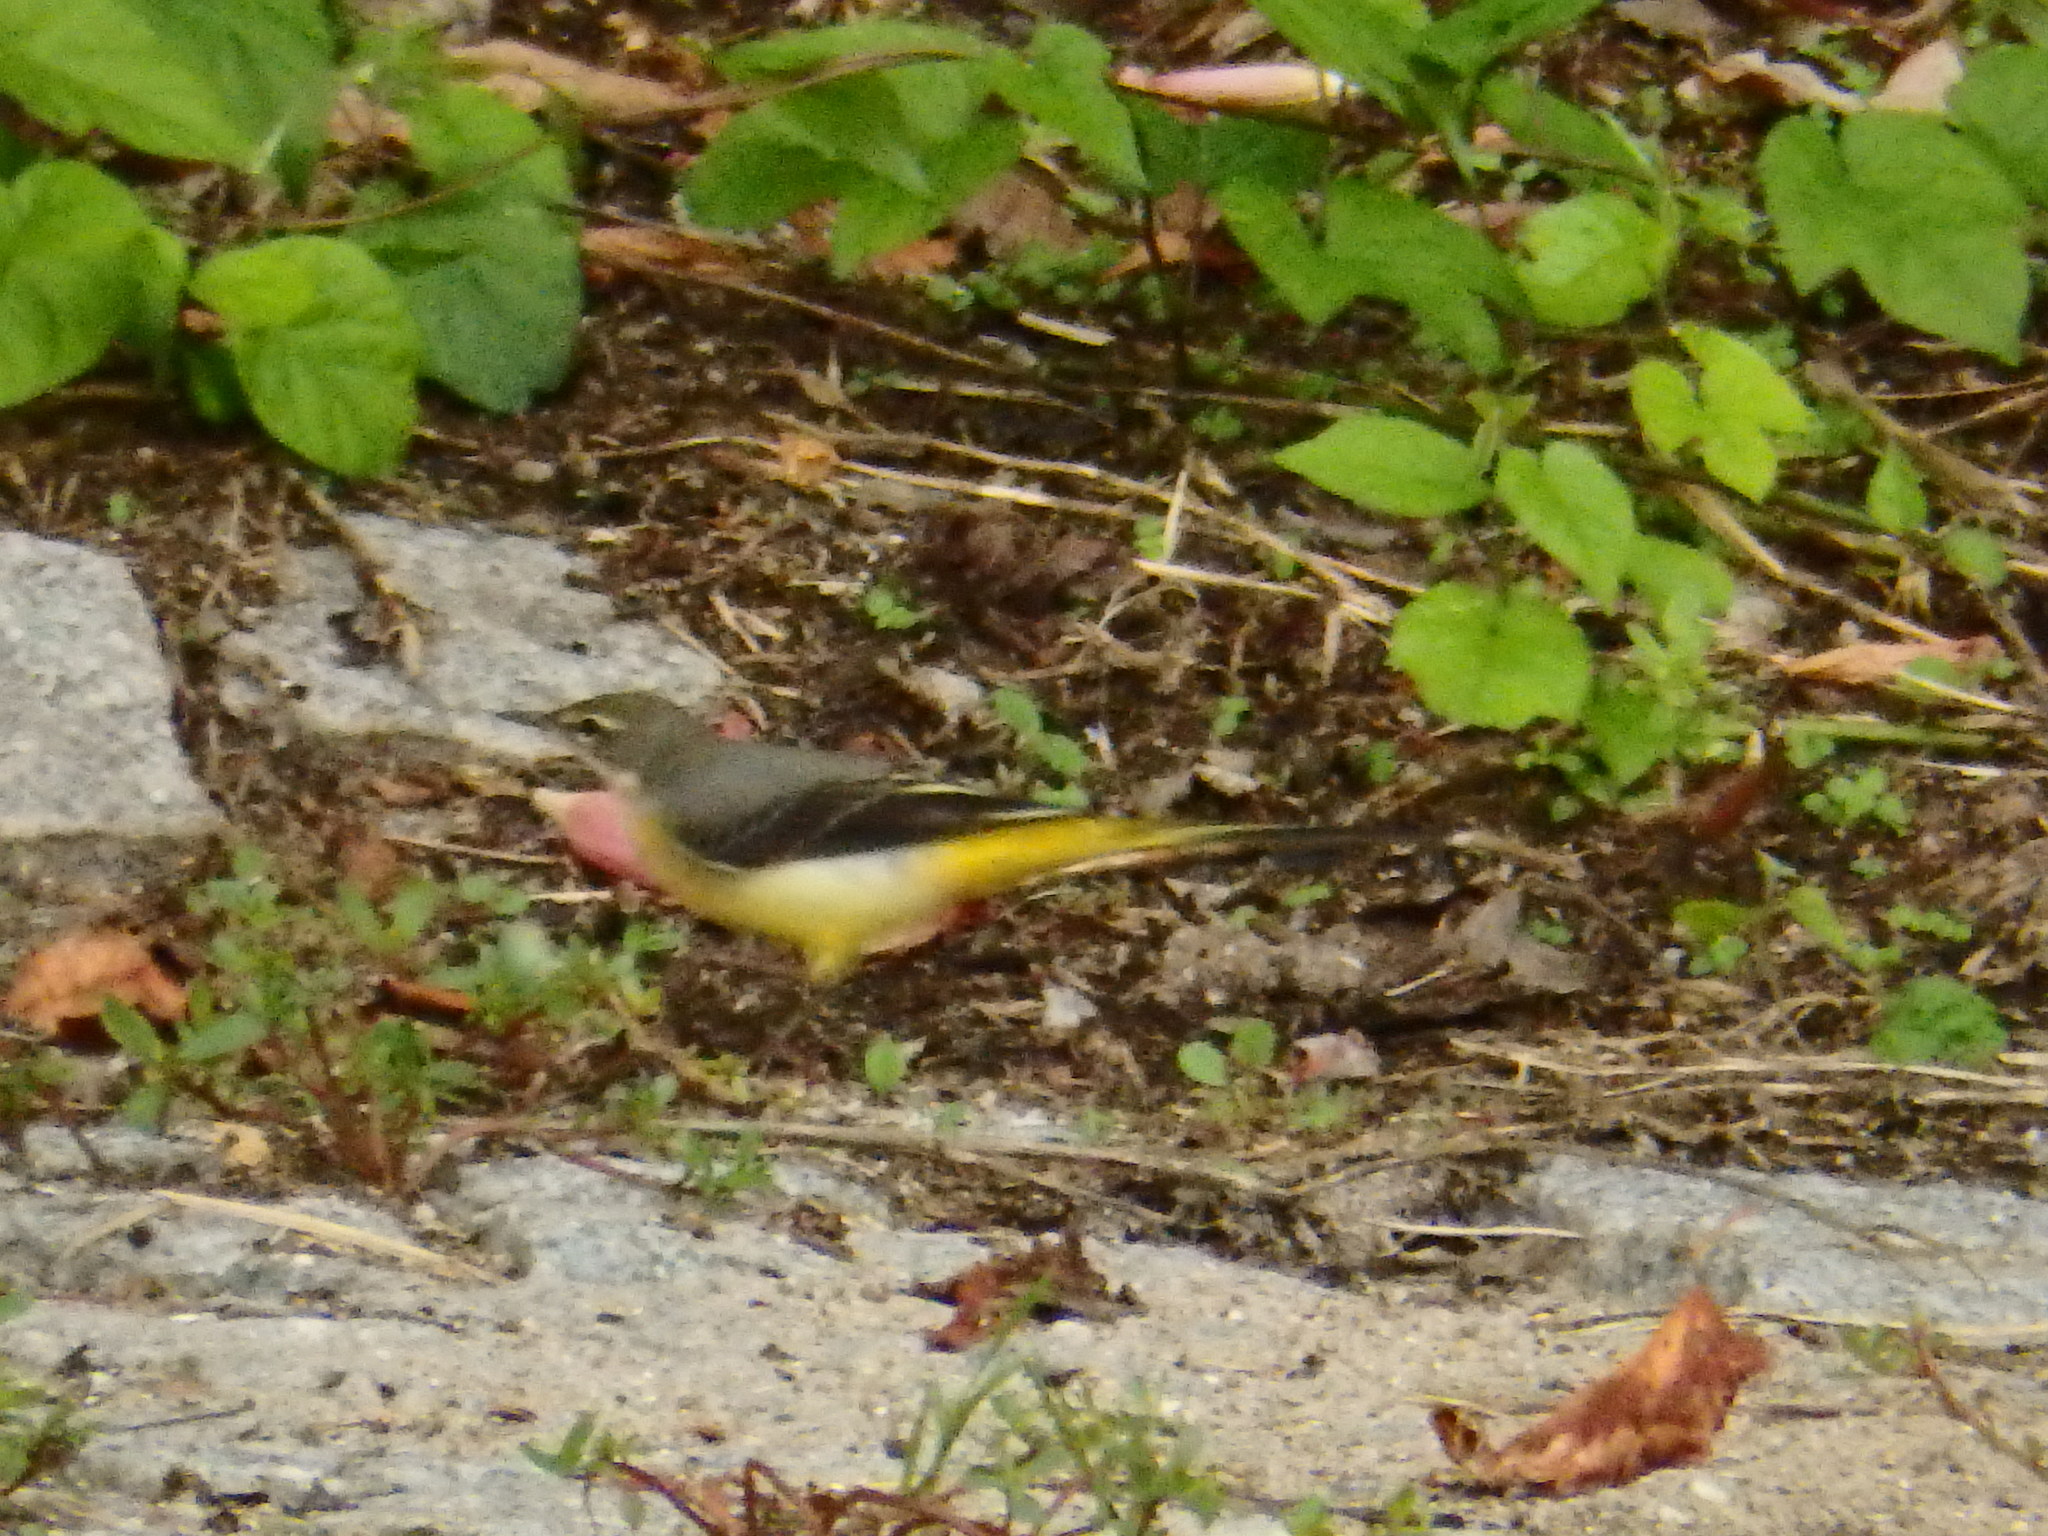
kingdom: Animalia
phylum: Chordata
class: Aves
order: Passeriformes
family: Motacillidae
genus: Motacilla
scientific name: Motacilla cinerea
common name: Grey wagtail
